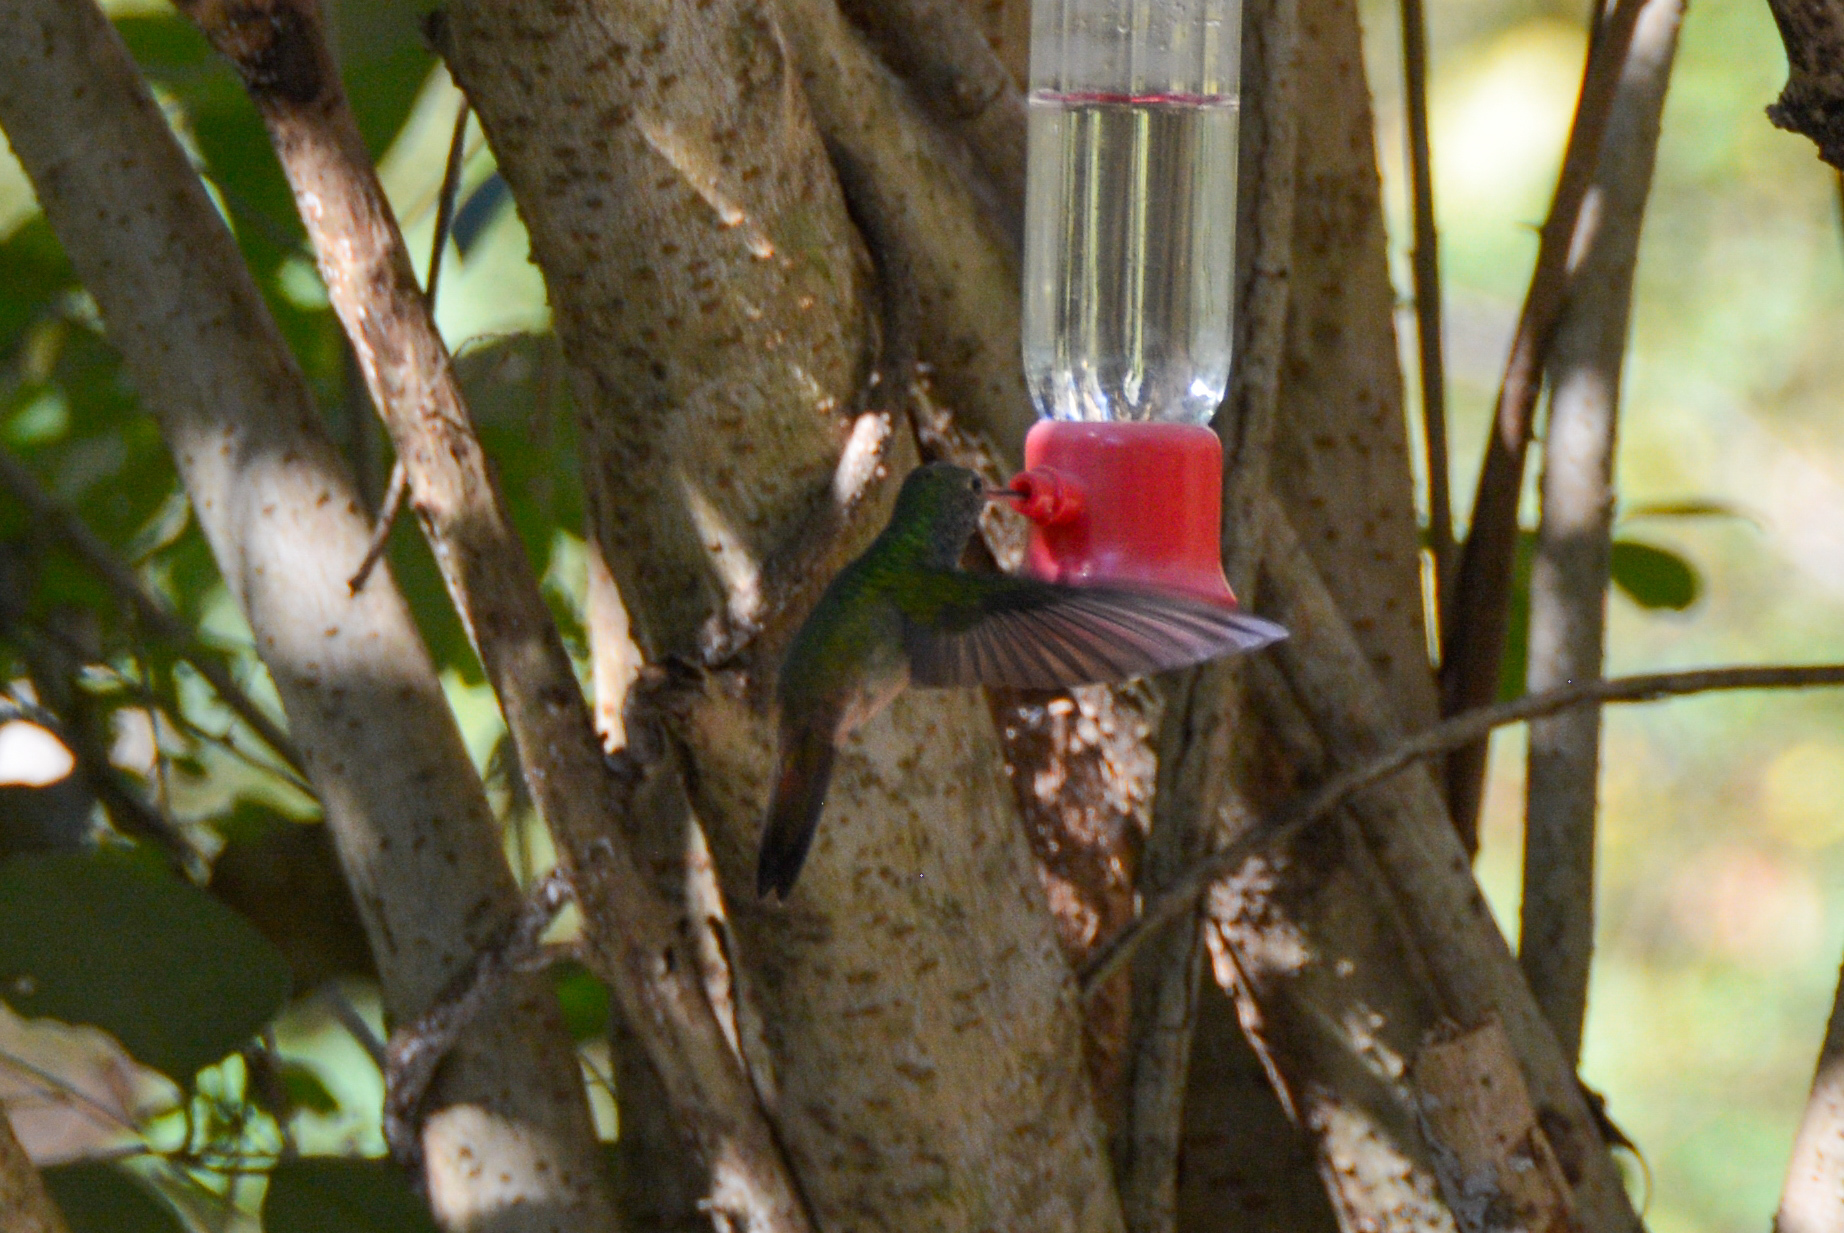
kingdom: Animalia
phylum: Chordata
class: Aves
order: Apodiformes
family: Trochilidae
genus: Amazilia
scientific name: Amazilia yucatanensis
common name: Buff-bellied hummingbird
